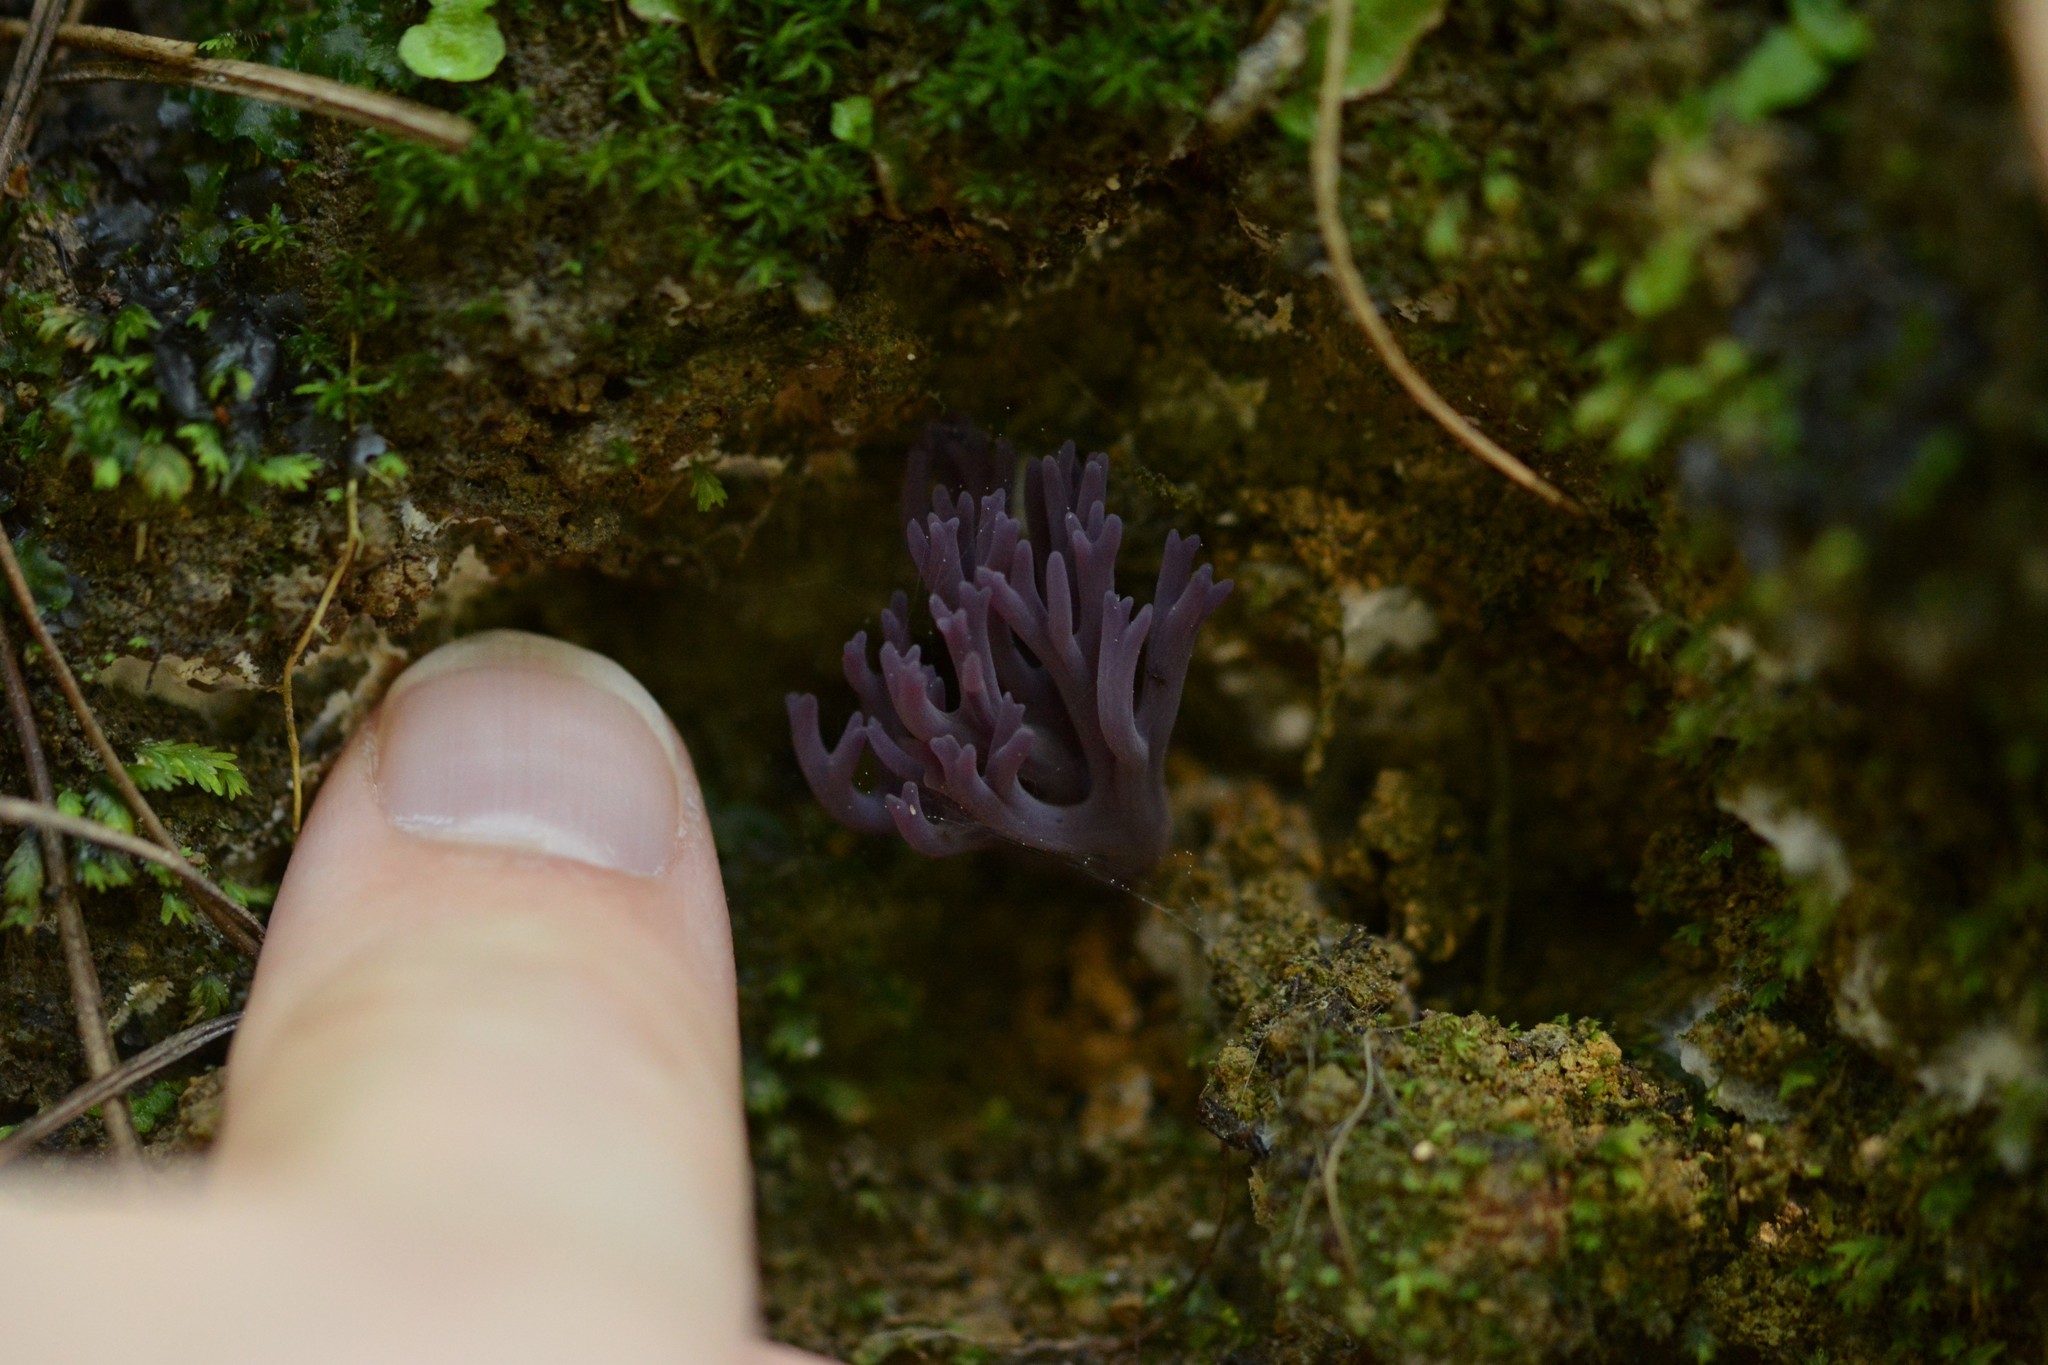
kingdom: Fungi
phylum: Basidiomycota
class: Agaricomycetes
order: Agaricales
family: Clavariaceae
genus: Clavaria
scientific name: Clavaria zollingeri
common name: Violet coral
